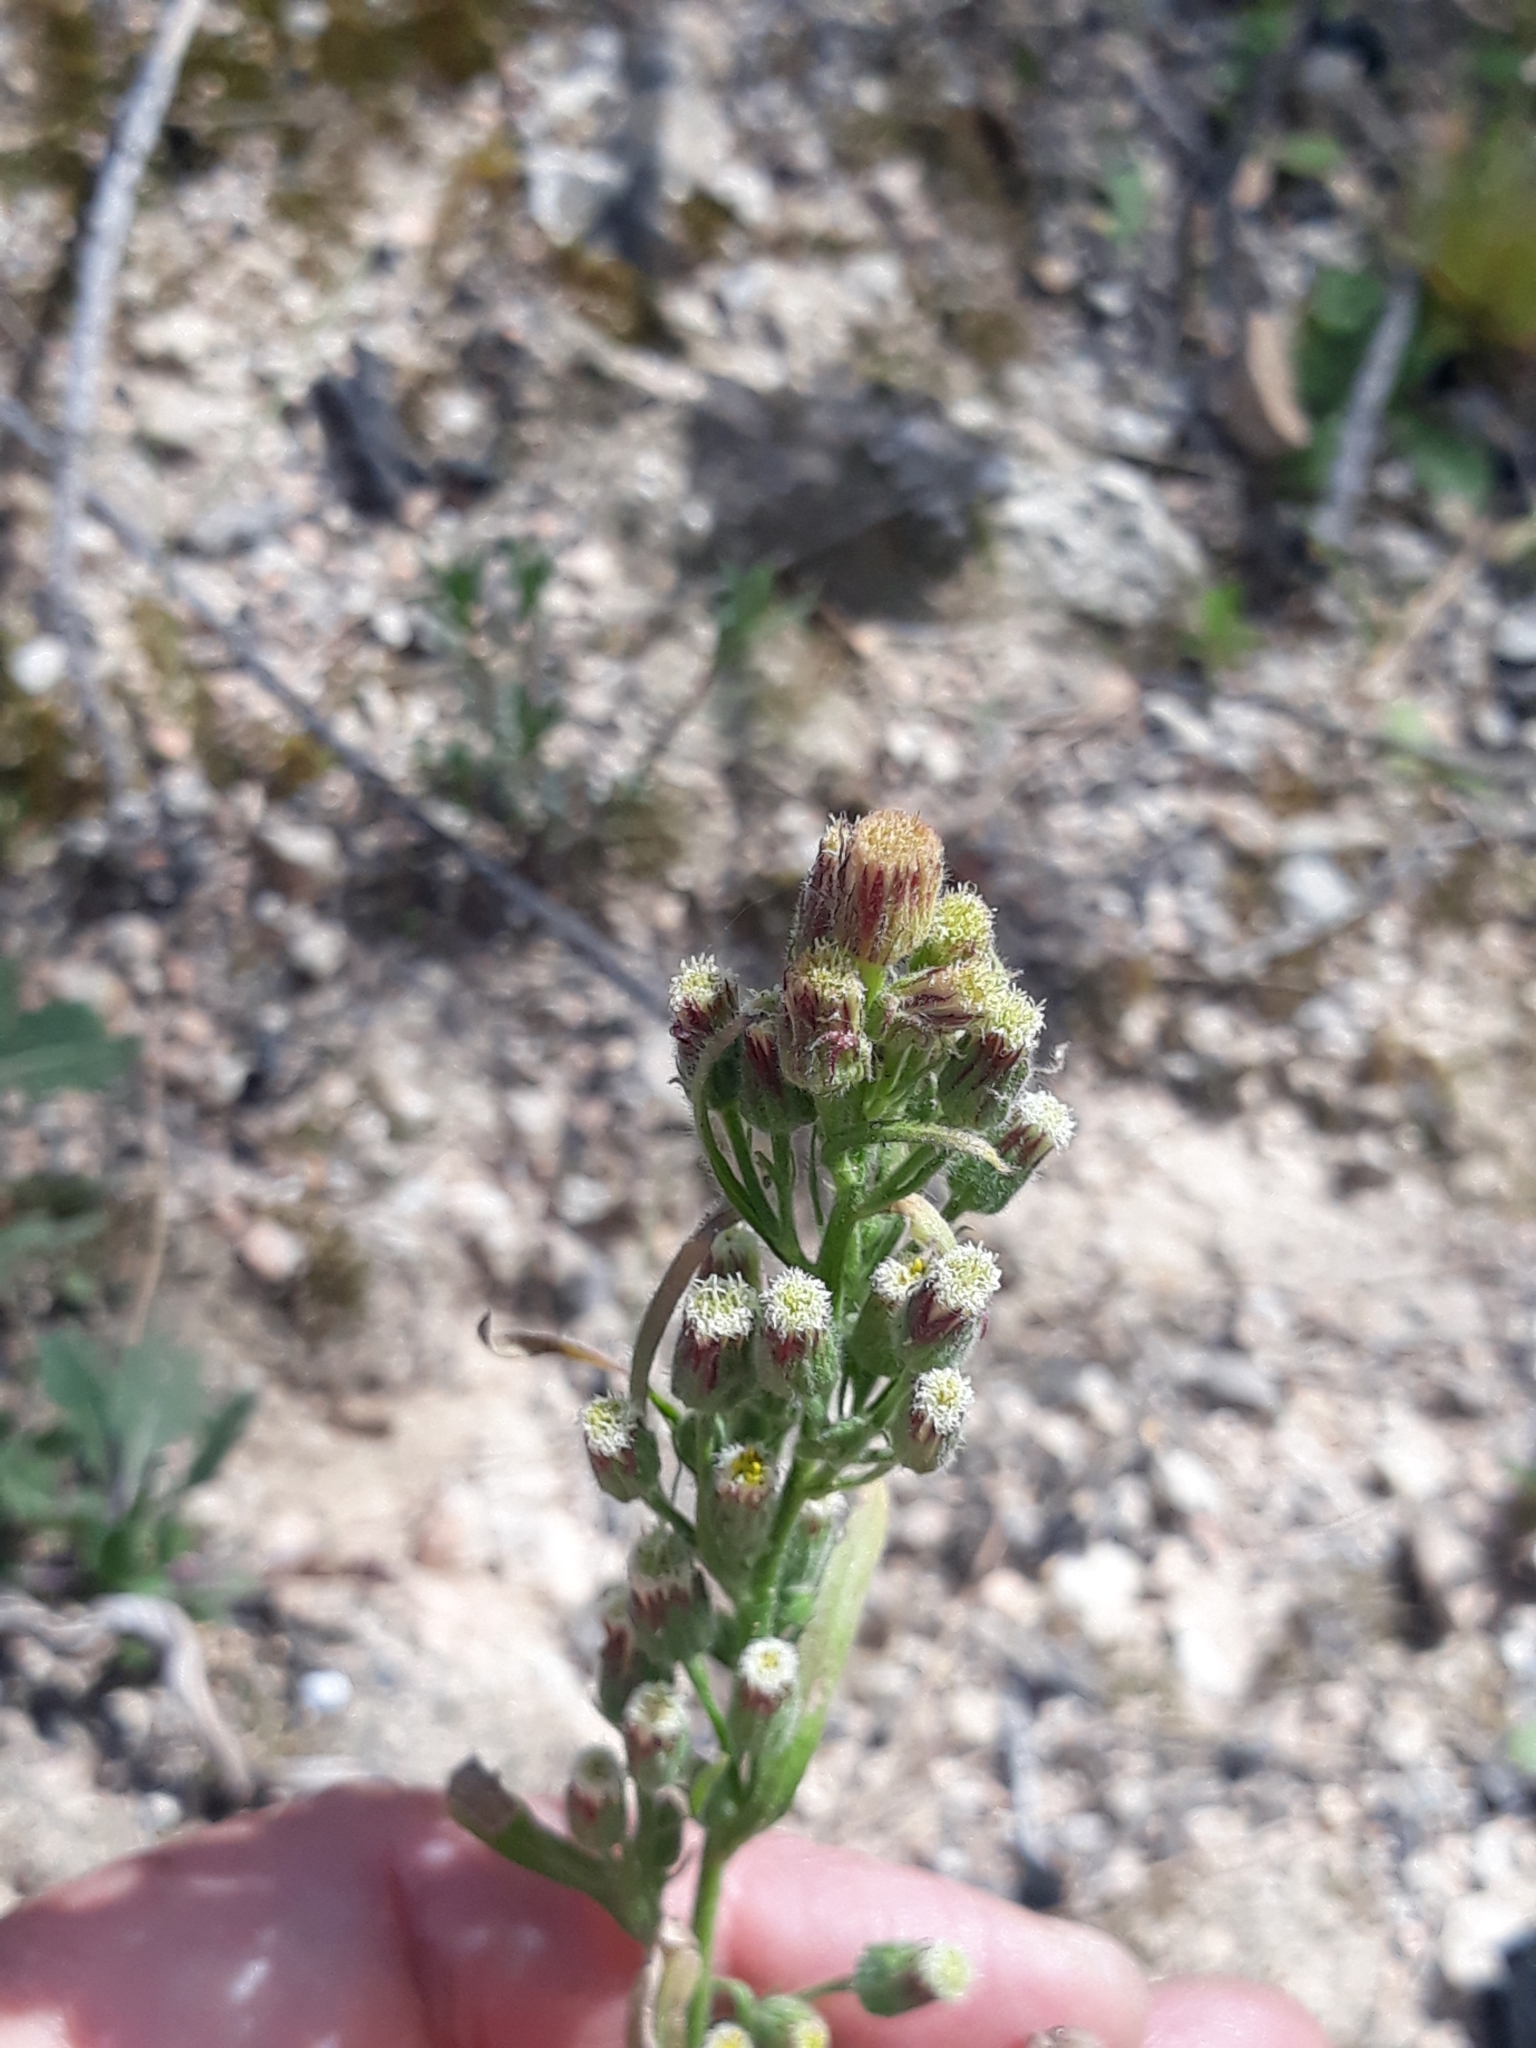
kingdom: Plantae
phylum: Tracheophyta
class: Magnoliopsida
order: Asterales
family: Asteraceae
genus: Erigeron
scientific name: Erigeron bonariensis
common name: Argentine fleabane
